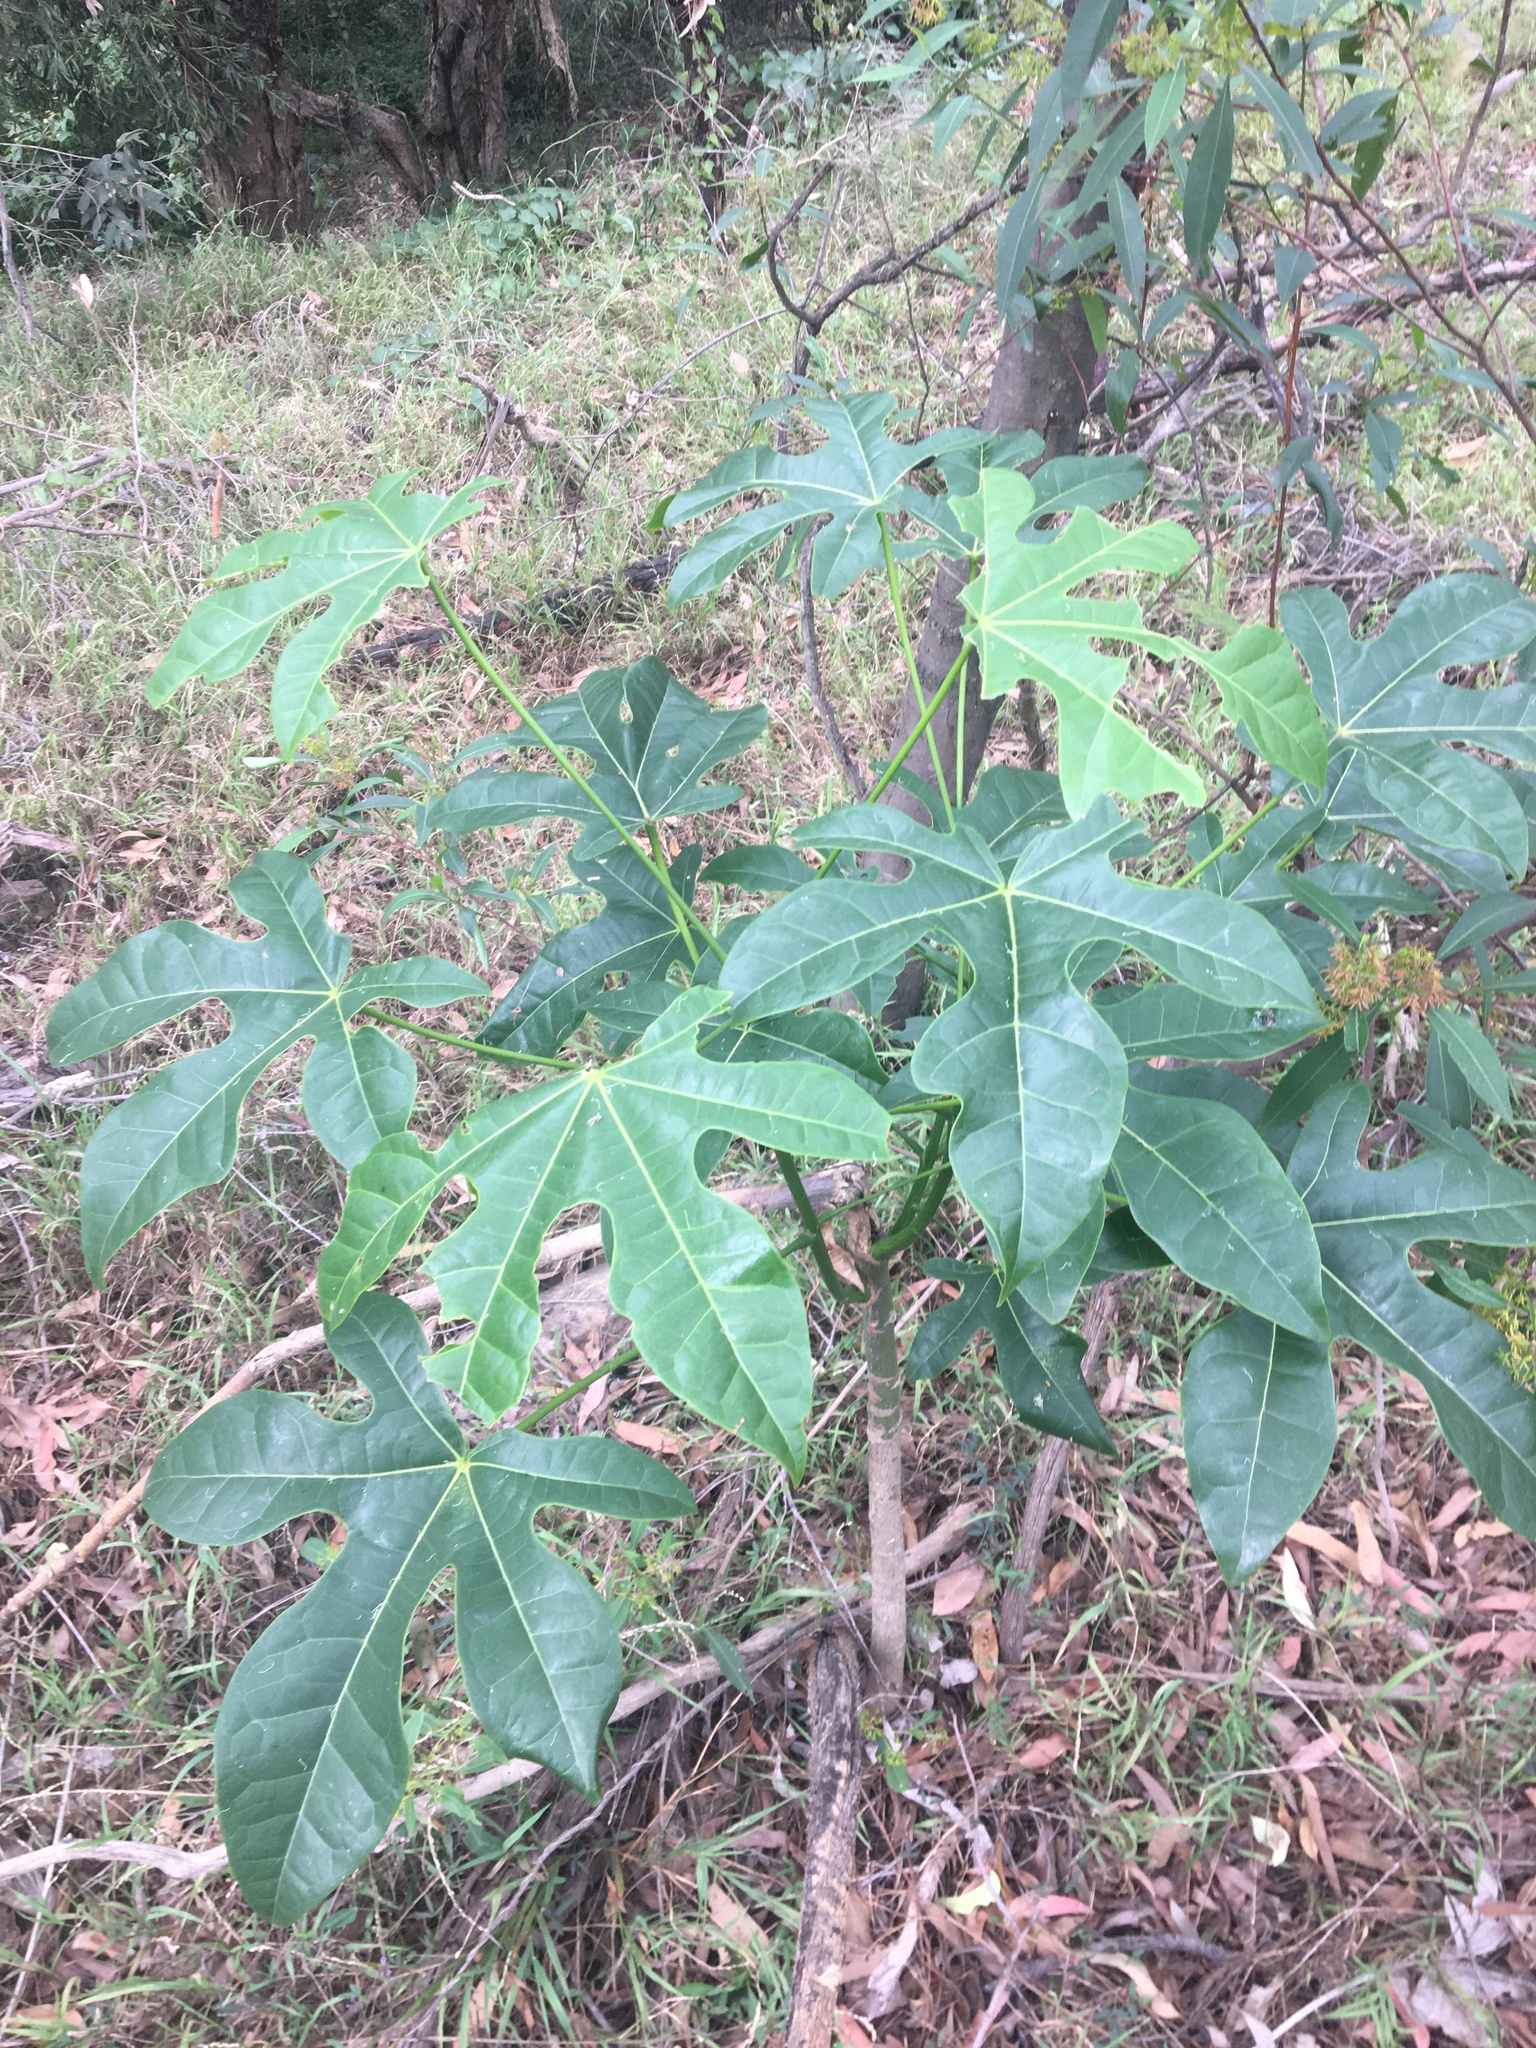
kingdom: Plantae
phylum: Tracheophyta
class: Magnoliopsida
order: Malvales
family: Malvaceae
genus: Brachychiton
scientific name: Brachychiton acerifolius
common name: Illawarra flame tree
